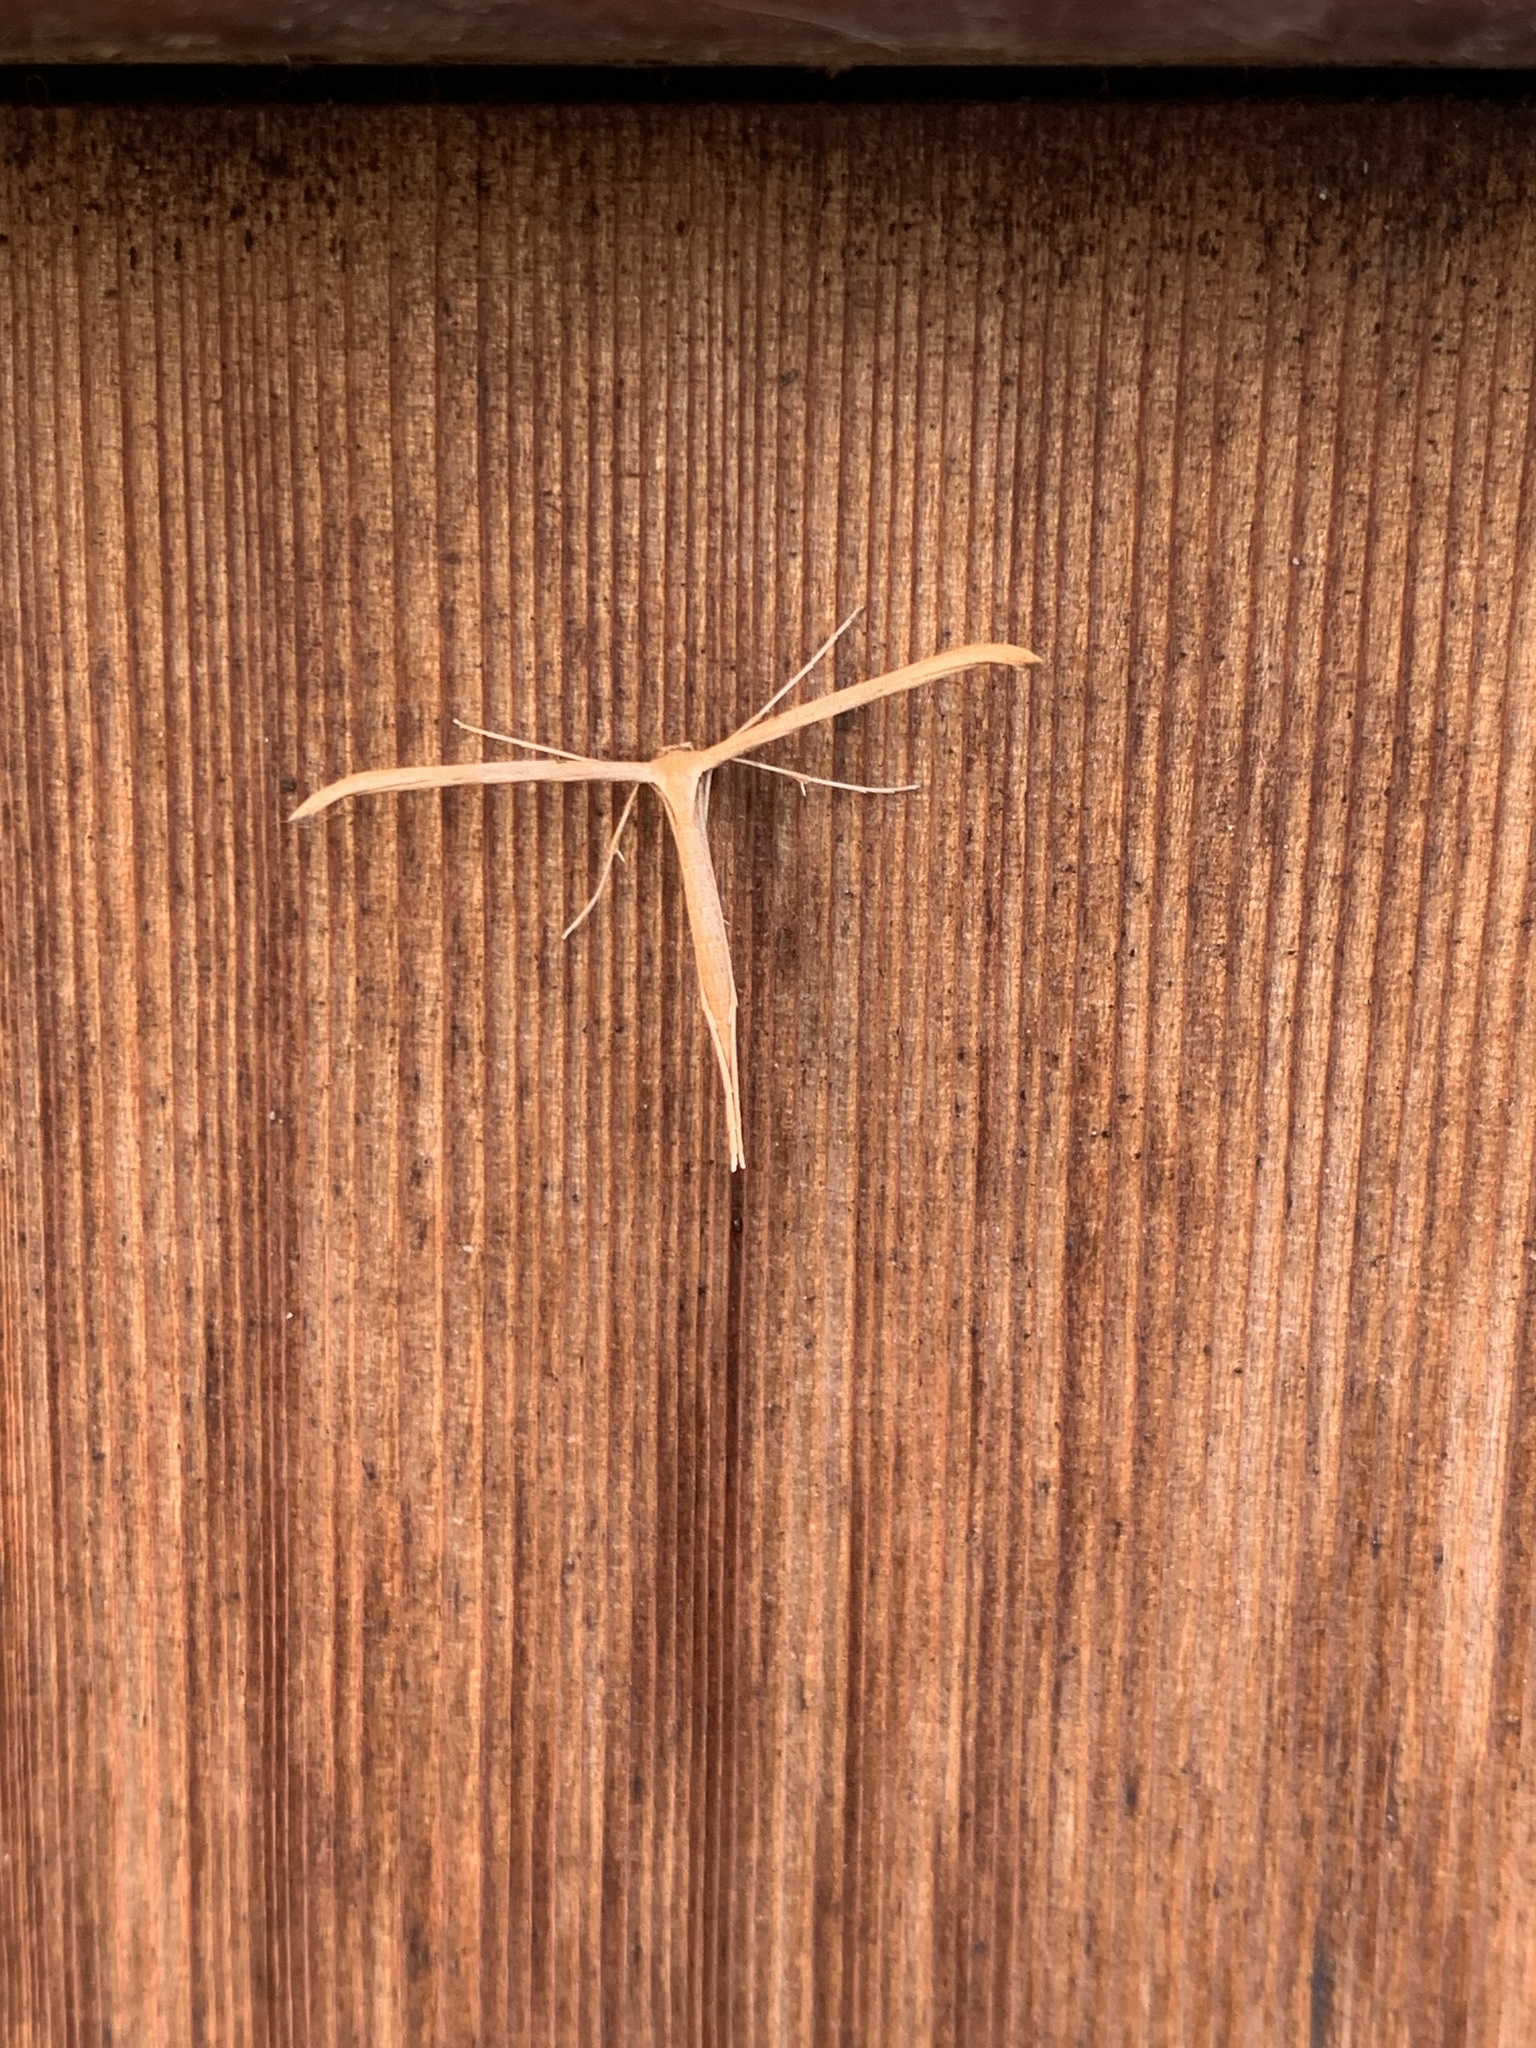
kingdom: Animalia
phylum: Arthropoda
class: Insecta
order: Lepidoptera
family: Pterophoridae
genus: Emmelina
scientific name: Emmelina monodactyla
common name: Common plume
